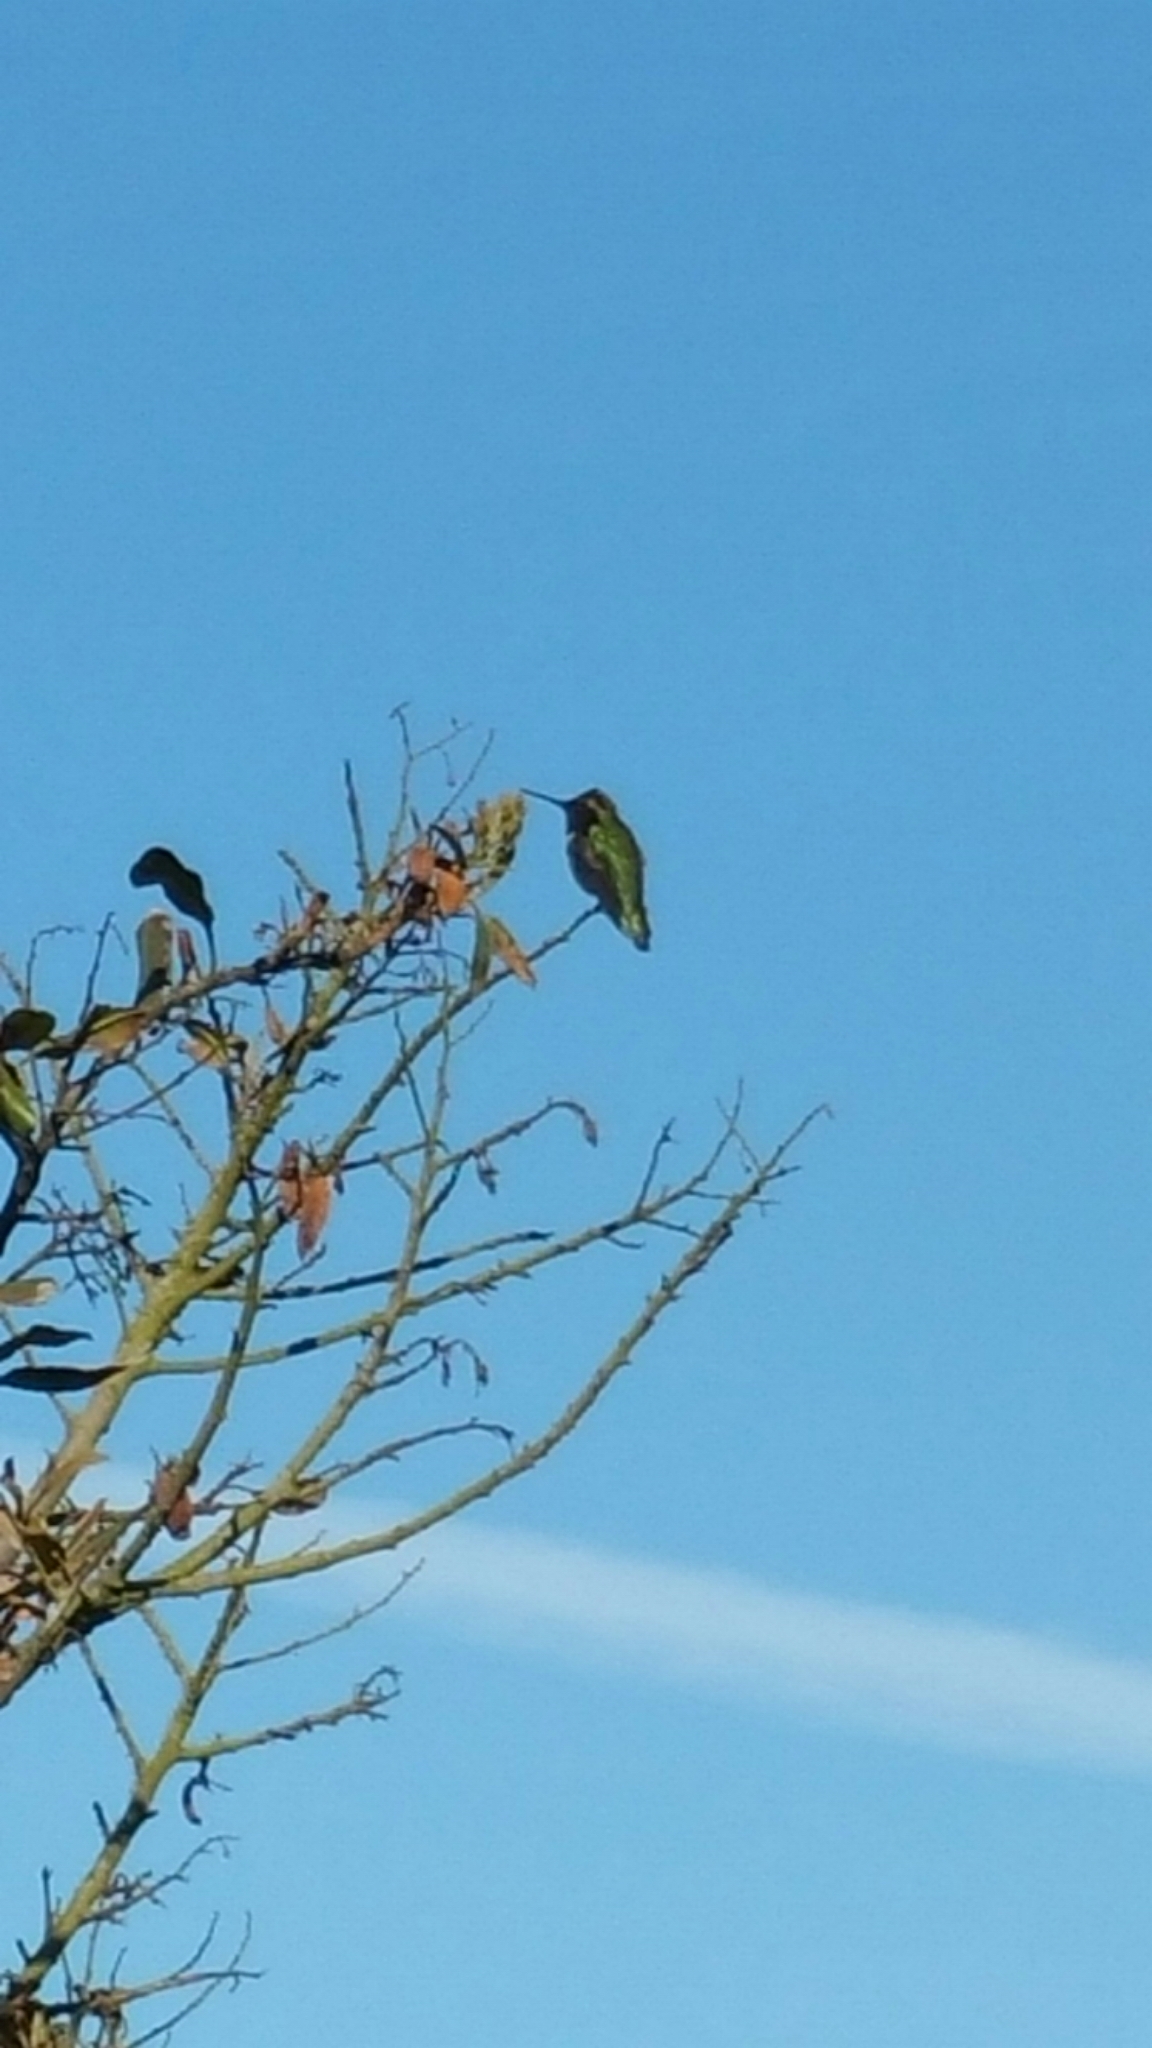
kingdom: Animalia
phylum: Chordata
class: Aves
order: Apodiformes
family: Trochilidae
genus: Calypte
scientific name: Calypte anna
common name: Anna's hummingbird
